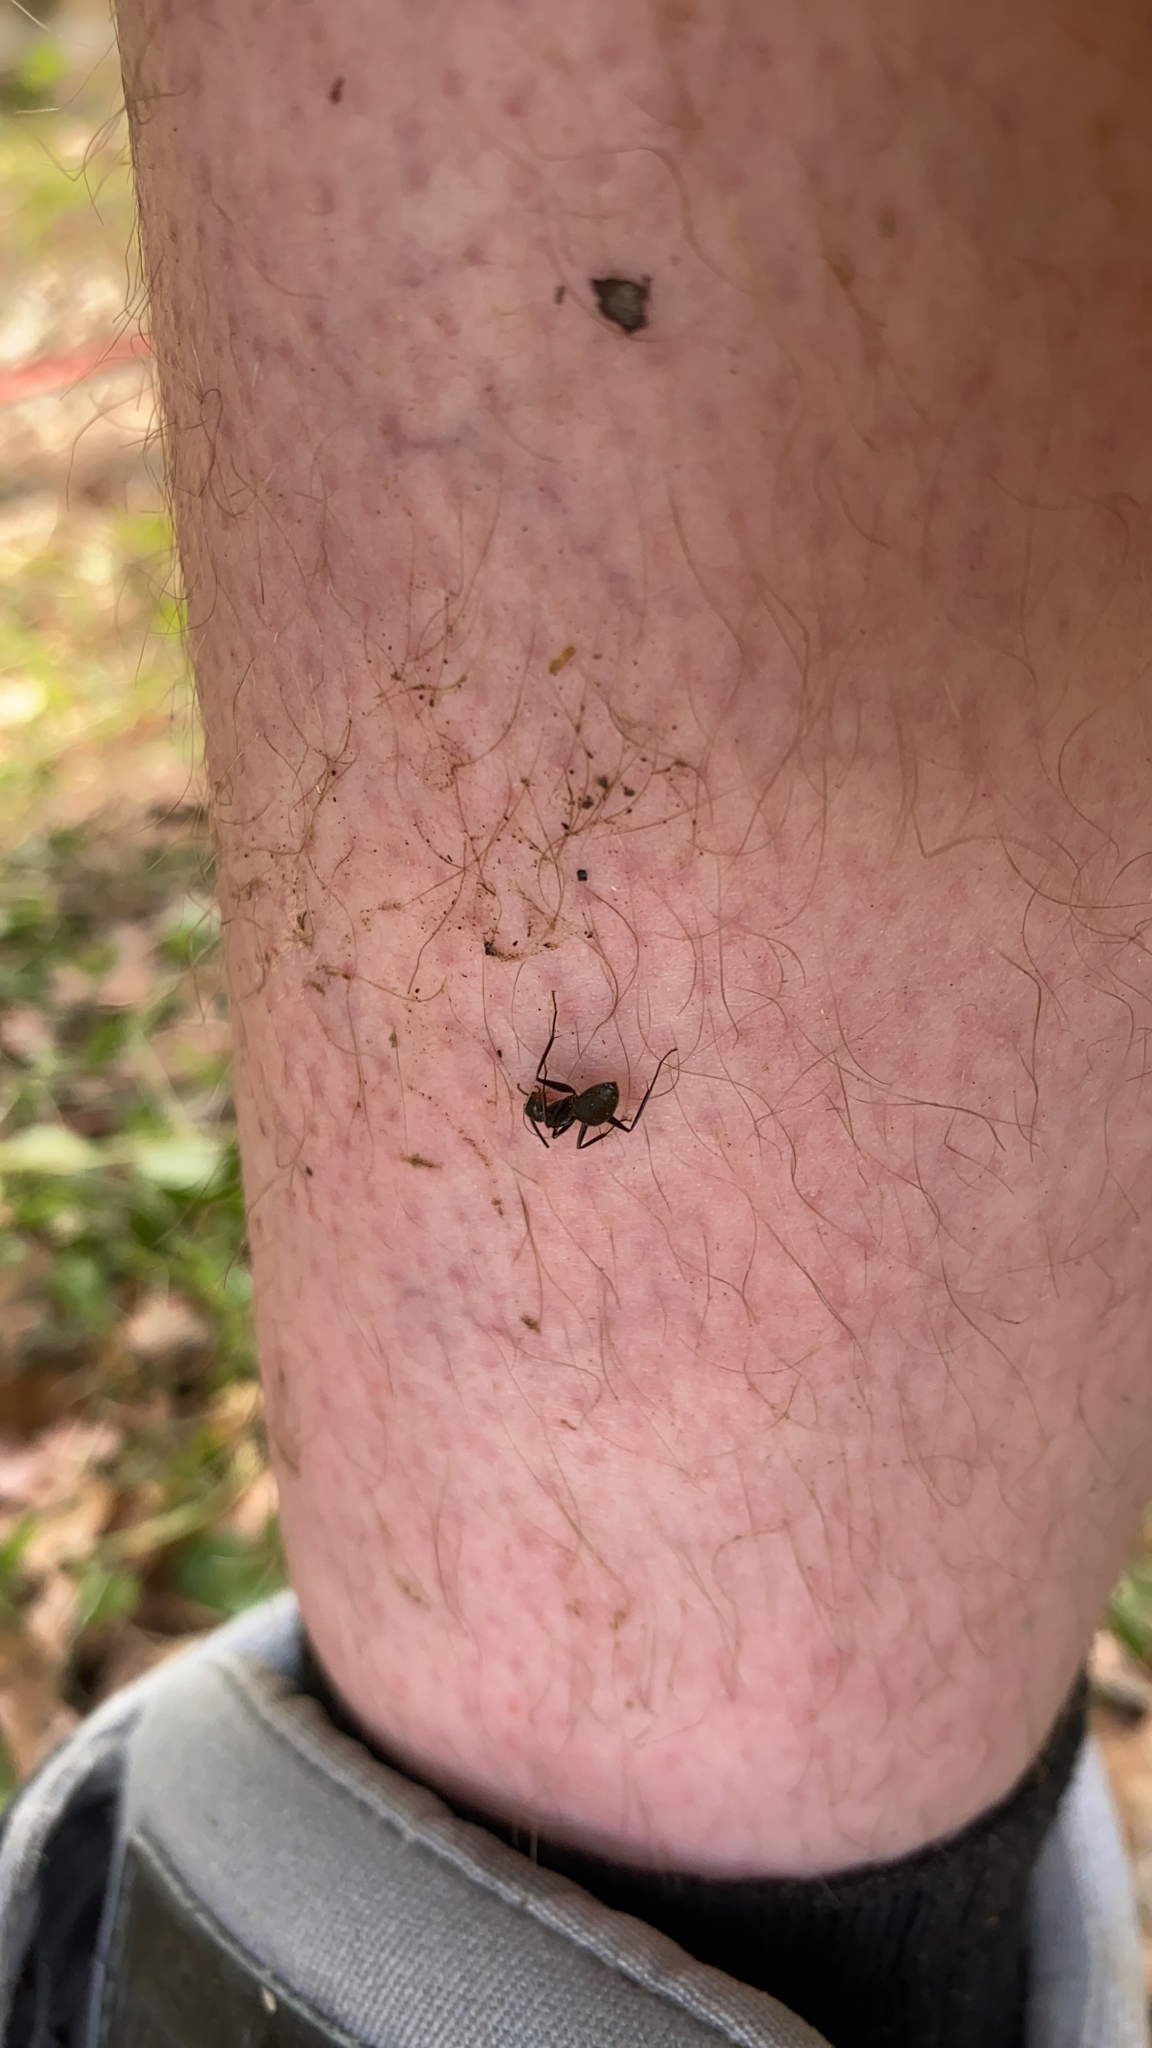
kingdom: Animalia
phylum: Arthropoda
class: Insecta
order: Hymenoptera
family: Formicidae
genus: Camponotus
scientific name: Camponotus pennsylvanicus
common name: Black carpenter ant
